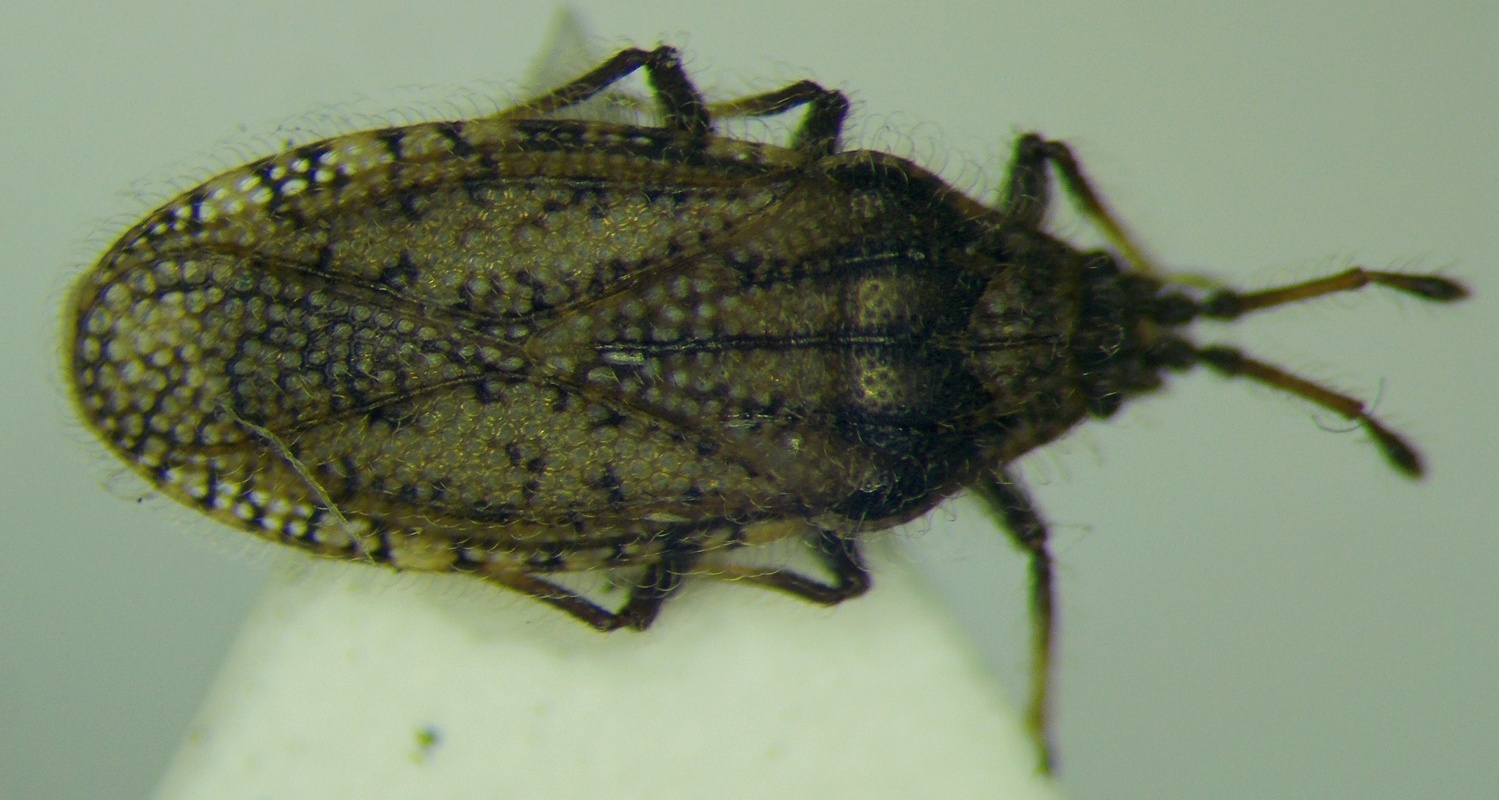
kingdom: Animalia
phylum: Arthropoda
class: Insecta
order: Hemiptera
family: Tingidae
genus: Tingis
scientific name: Tingis pauperata
